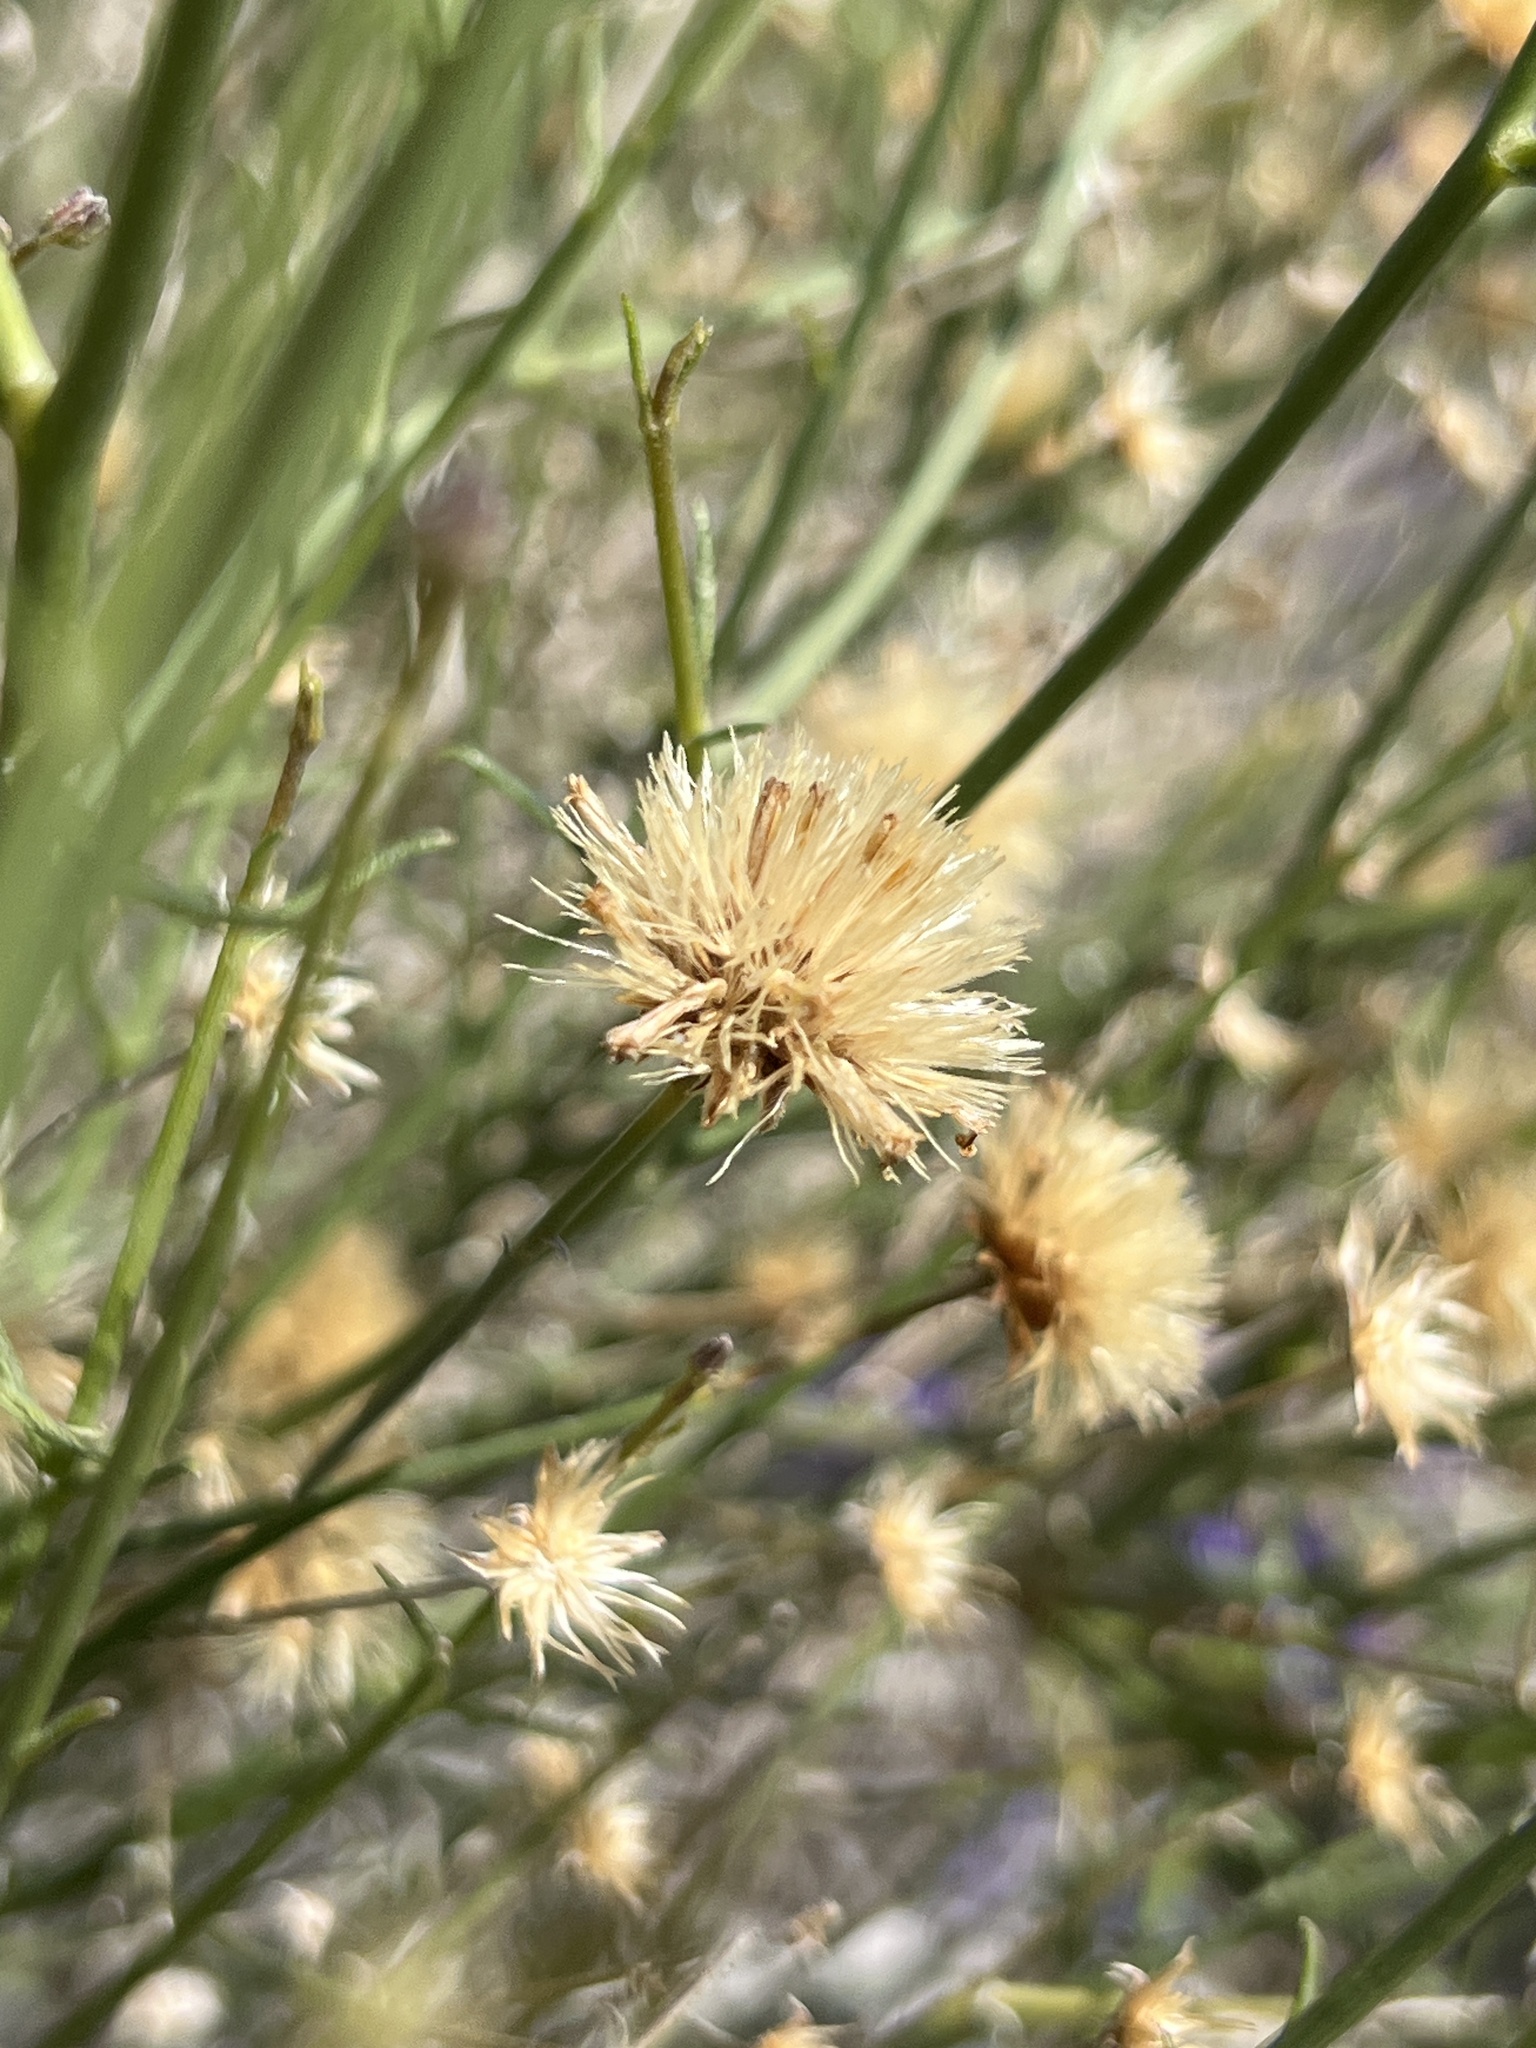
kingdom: Plantae
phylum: Tracheophyta
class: Magnoliopsida
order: Asterales
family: Asteraceae
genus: Bebbia
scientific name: Bebbia juncea
